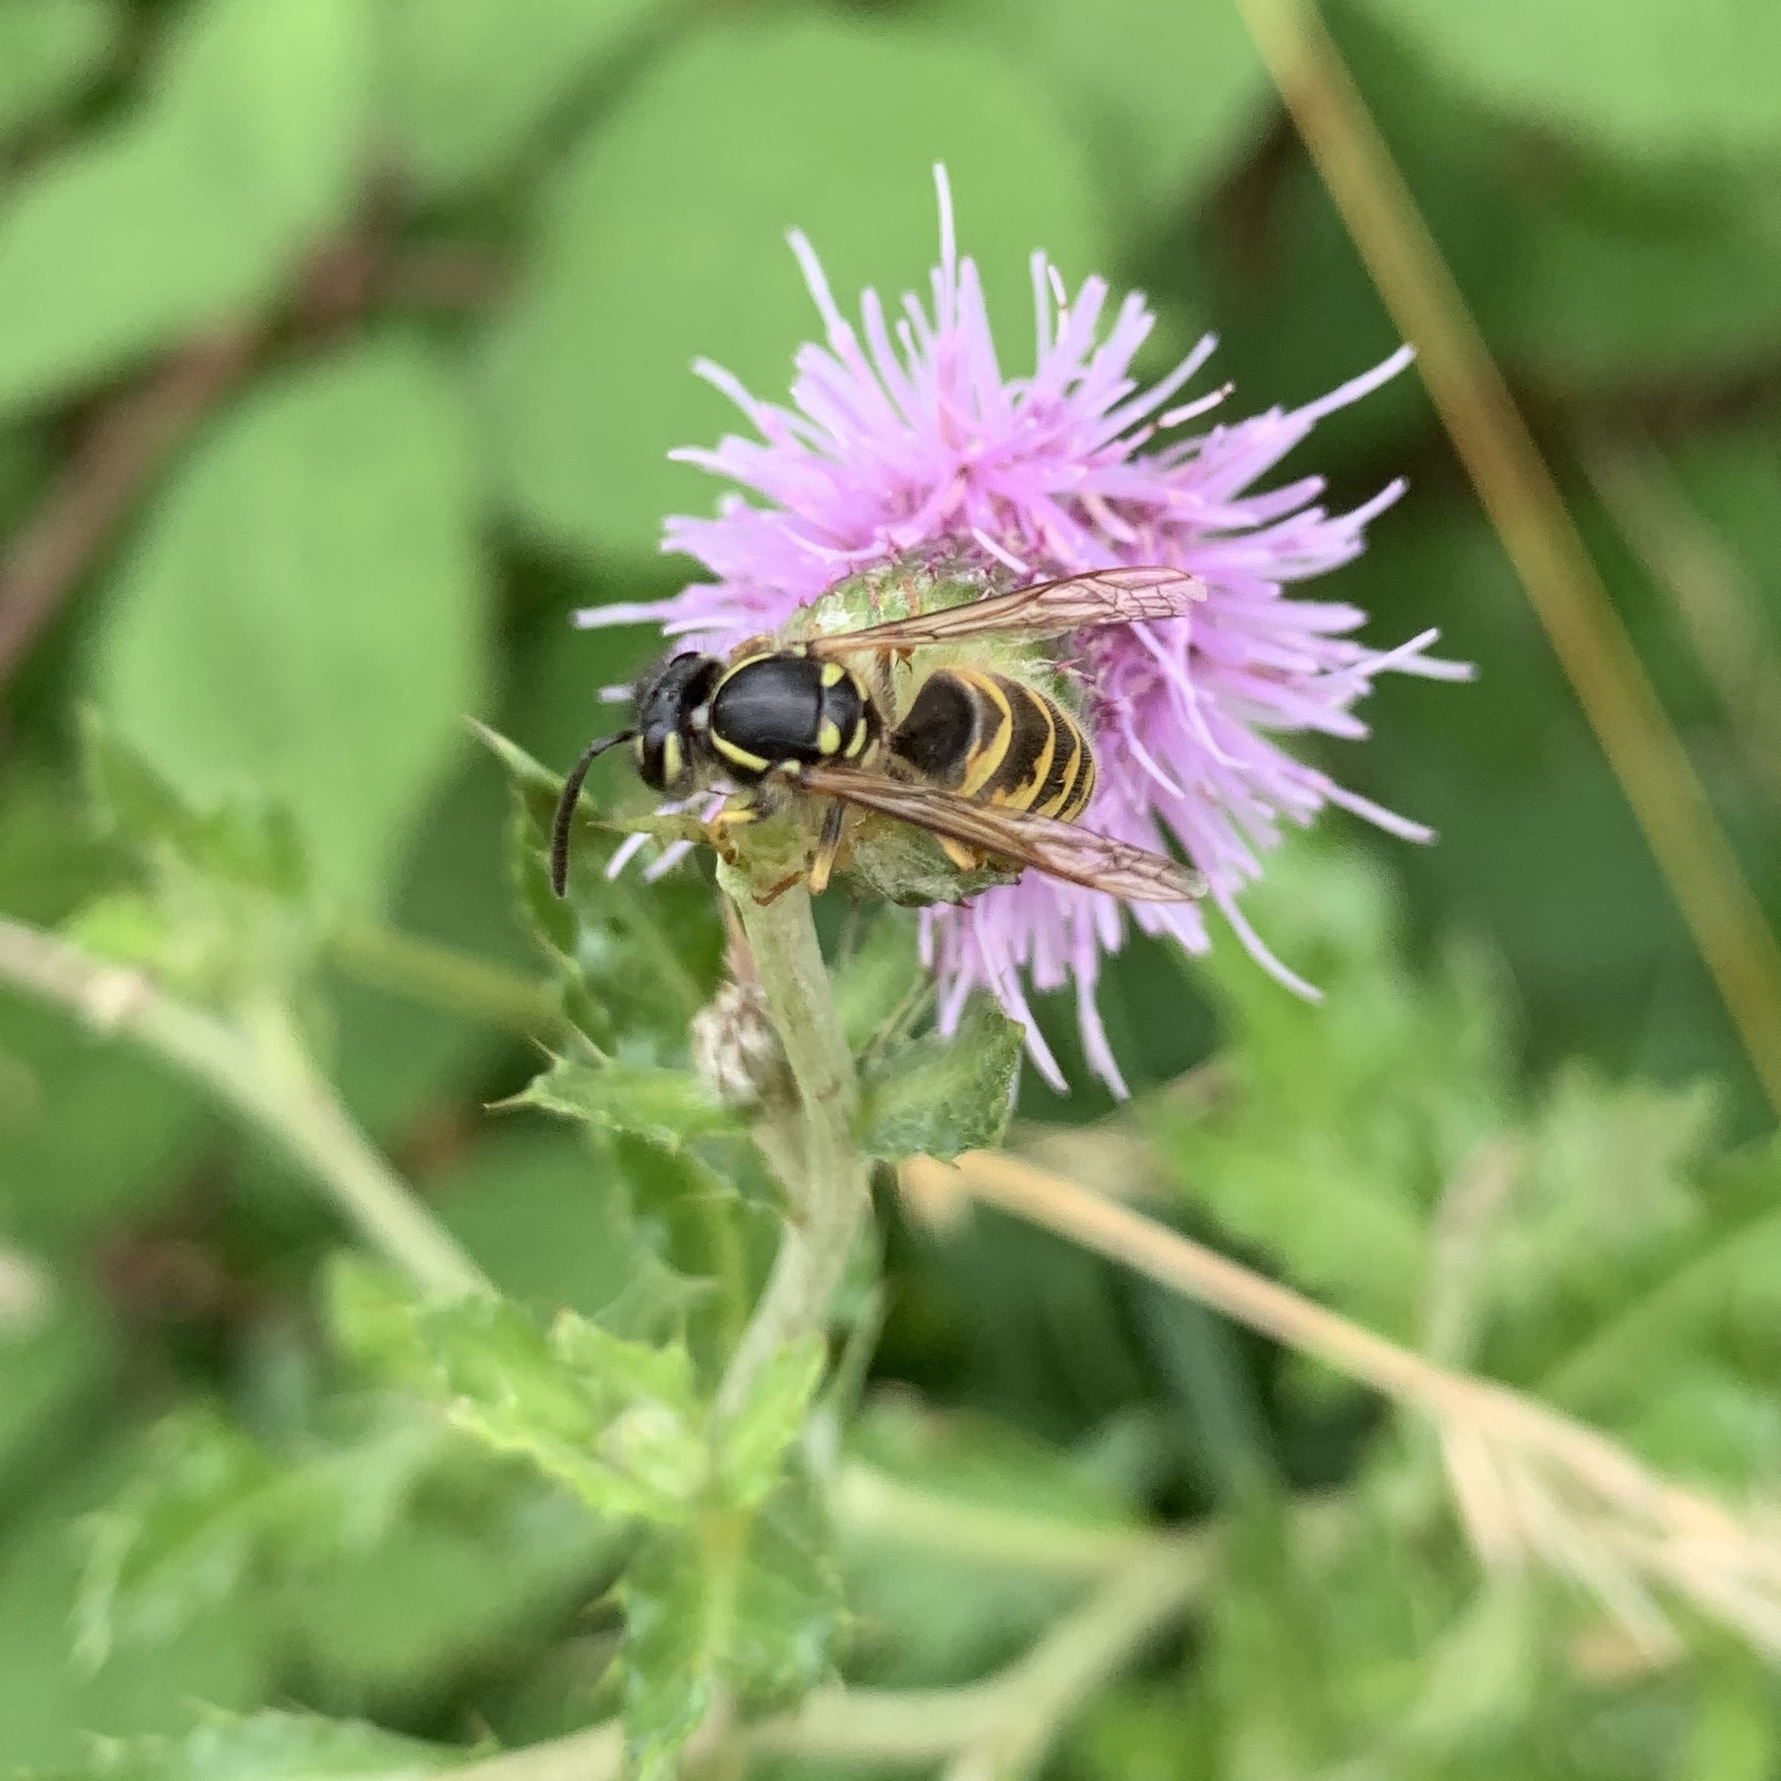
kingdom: Animalia
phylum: Arthropoda
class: Insecta
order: Hymenoptera
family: Vespidae
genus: Vespula
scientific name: Vespula vulgaris
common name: Common wasp
